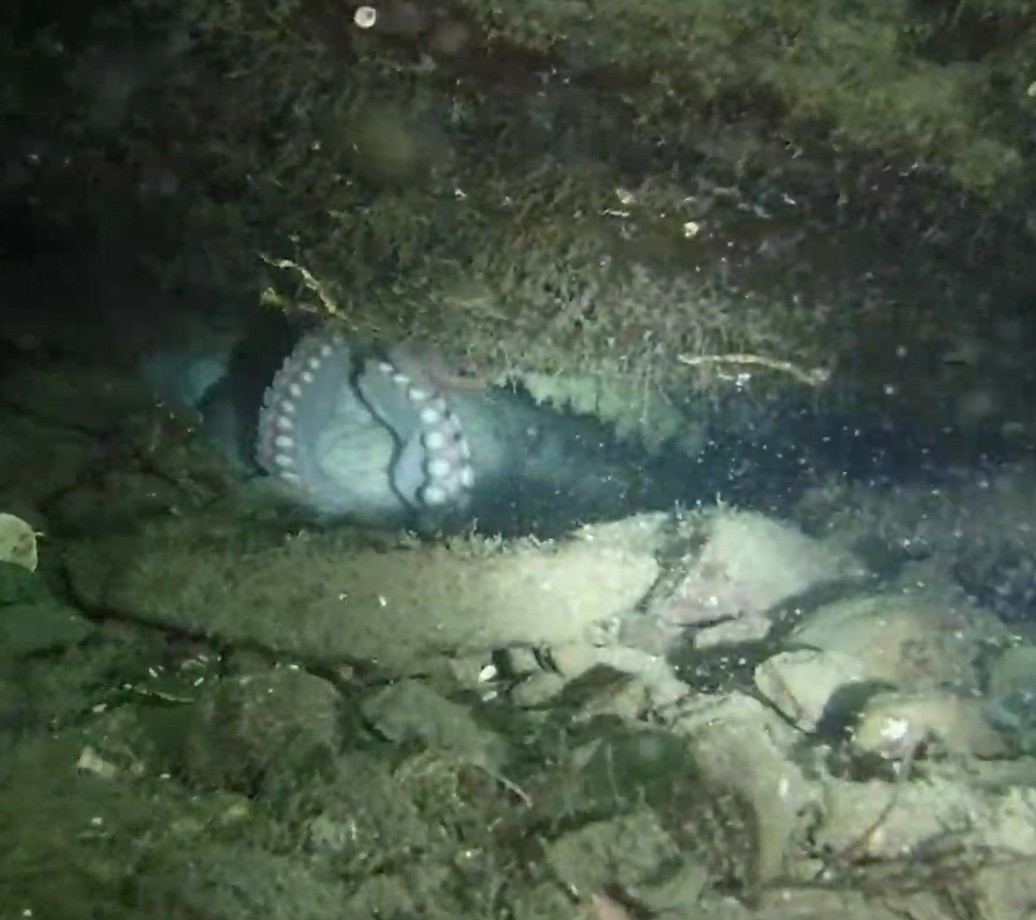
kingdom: Animalia
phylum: Mollusca
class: Cephalopoda
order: Octopoda
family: Enteroctopodidae
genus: Enteroctopus
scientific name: Enteroctopus dofleini
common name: Giant north pacific octopus
